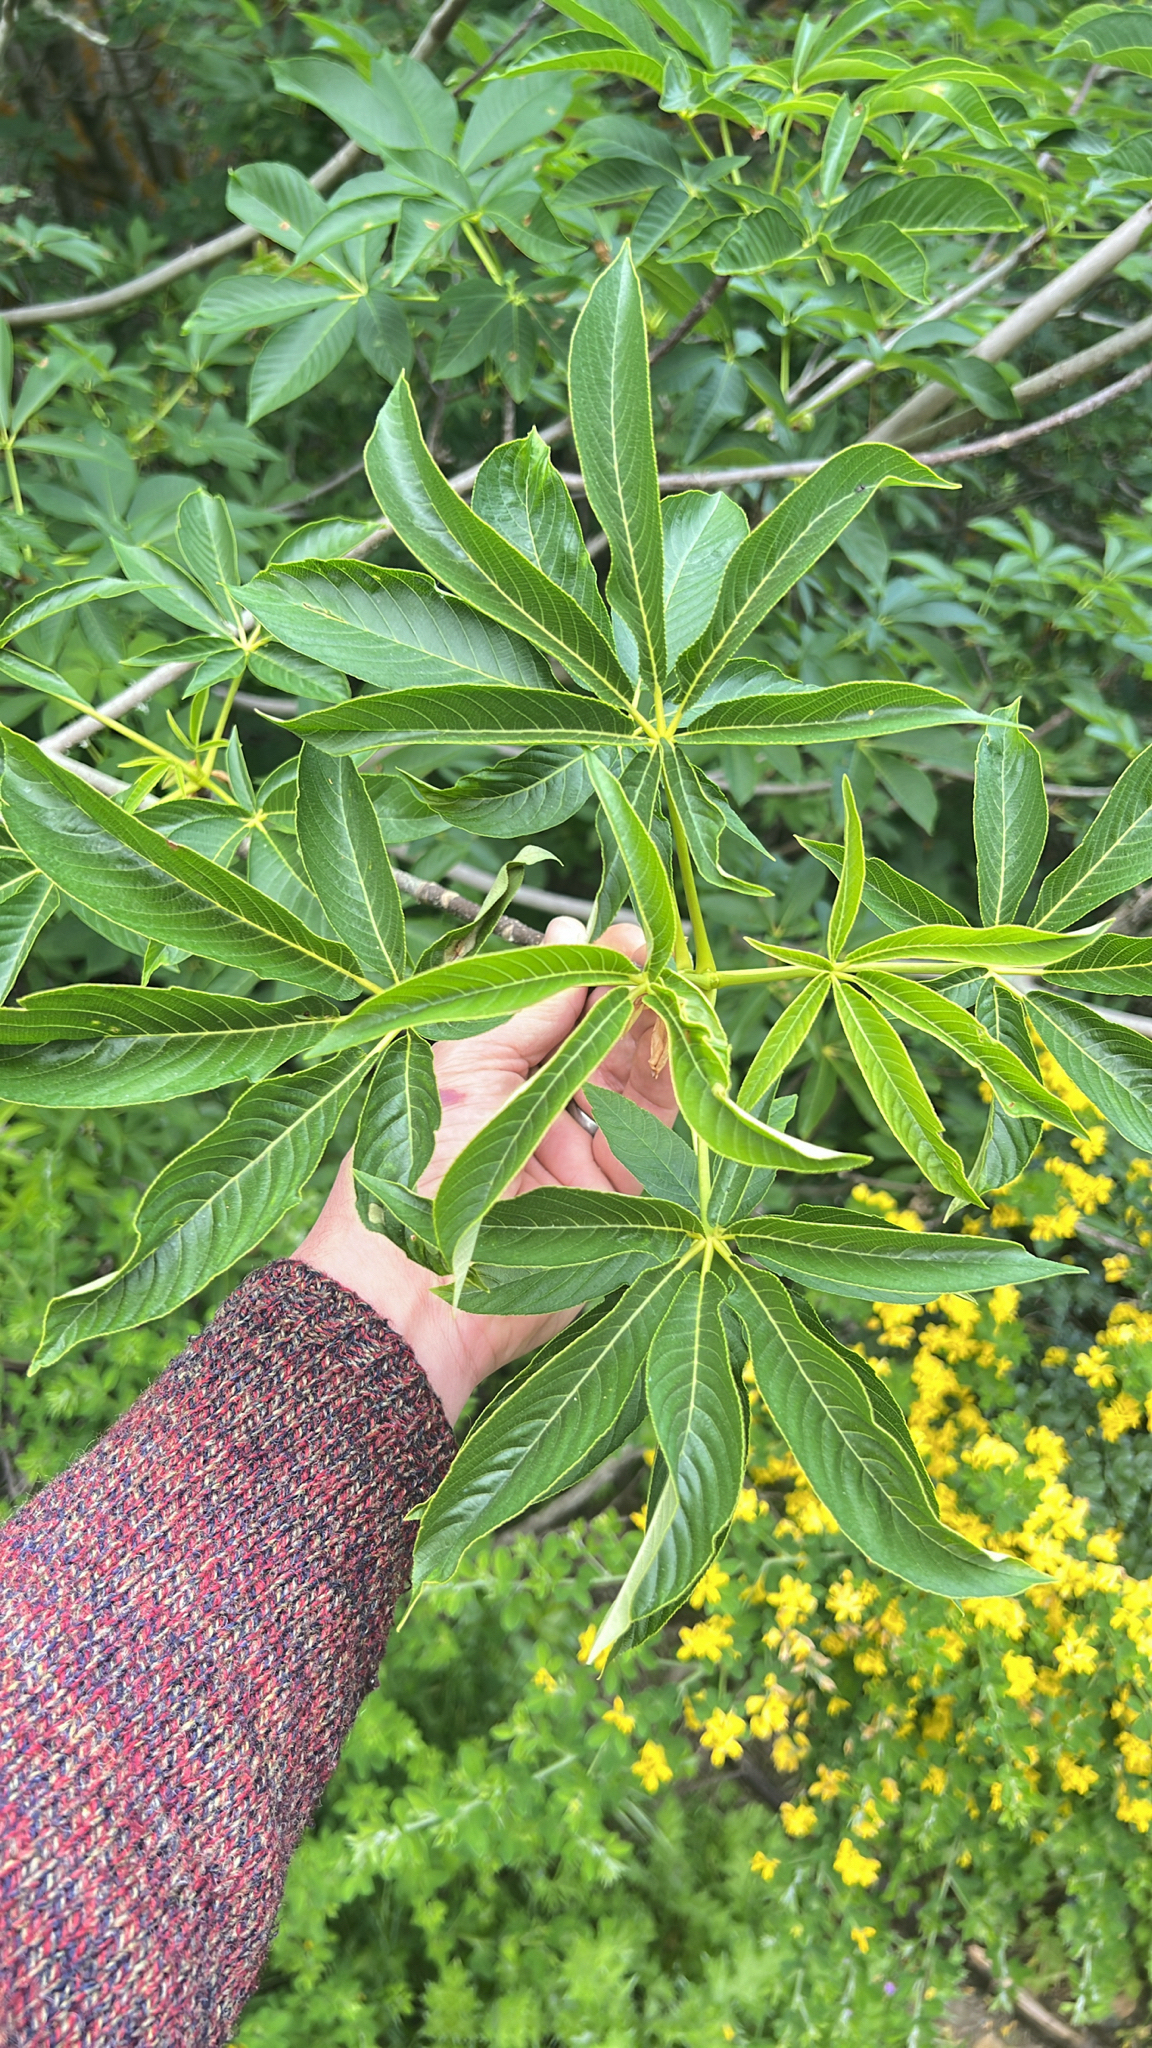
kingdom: Plantae
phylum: Tracheophyta
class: Magnoliopsida
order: Sapindales
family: Sapindaceae
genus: Aesculus
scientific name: Aesculus californica
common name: California buckeye
